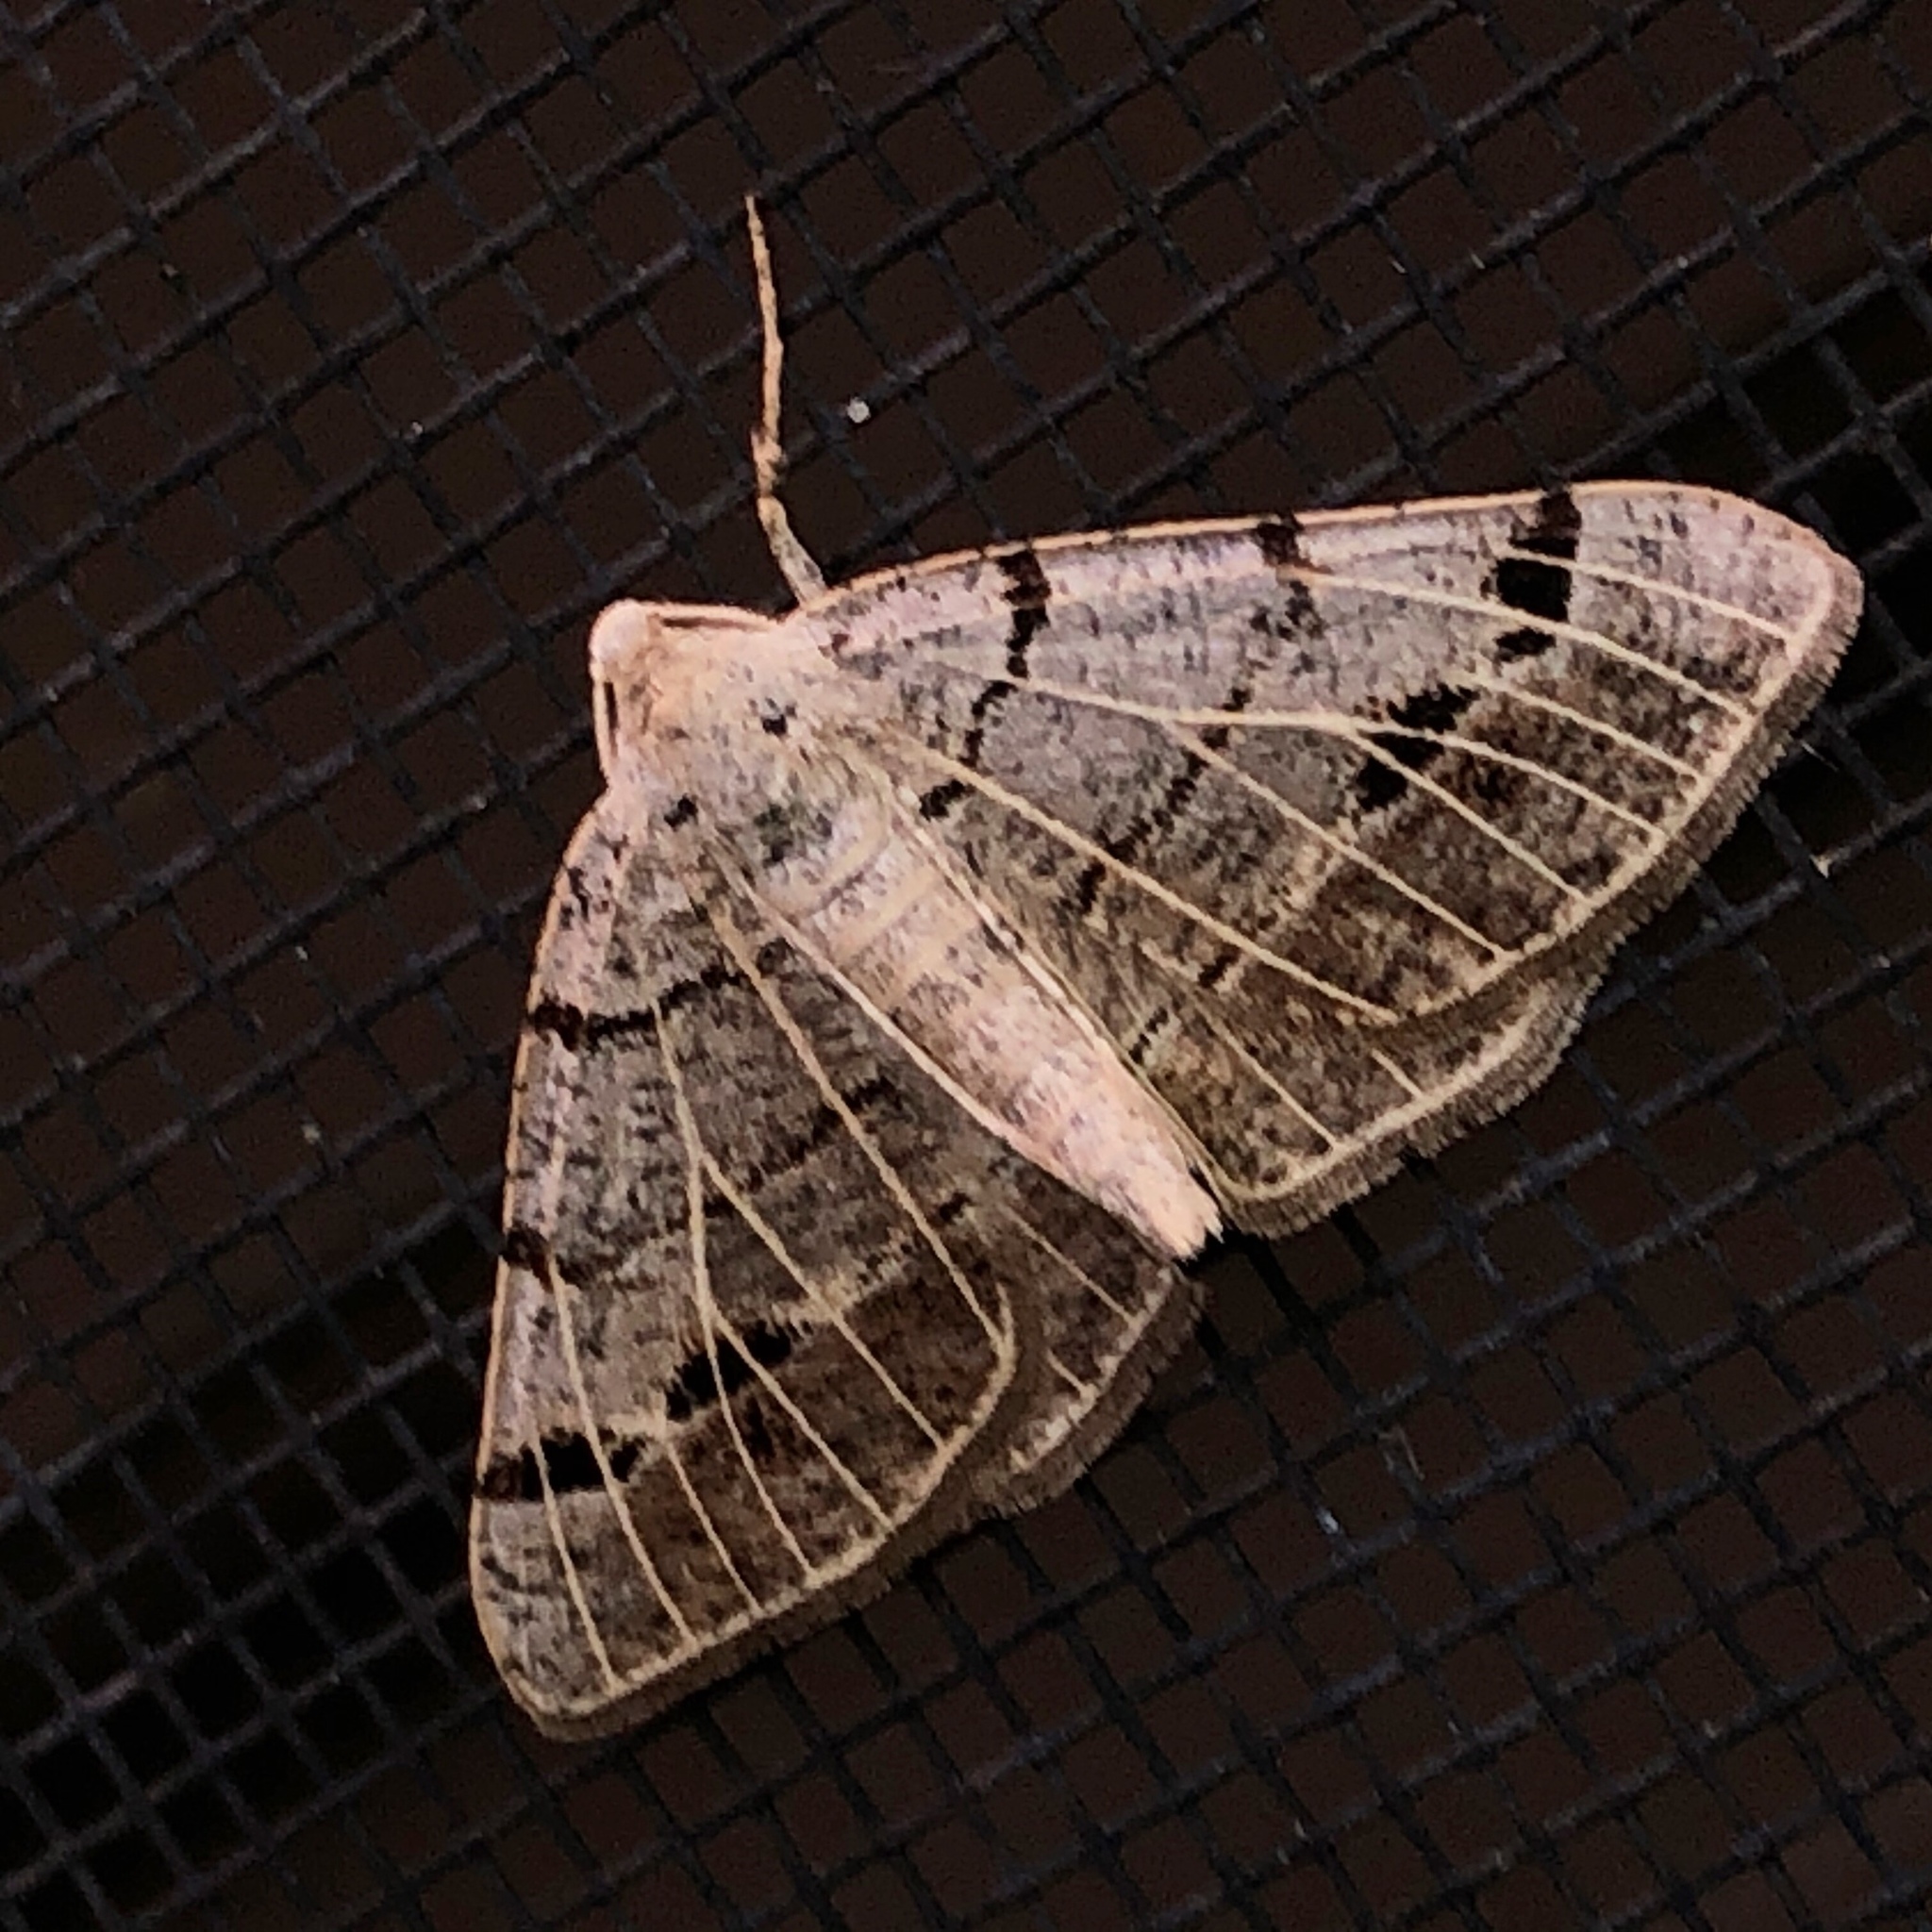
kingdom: Animalia
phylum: Arthropoda
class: Insecta
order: Lepidoptera
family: Geometridae
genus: Isturgia
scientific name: Isturgia dislocaria
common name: Pale-viened enconista
